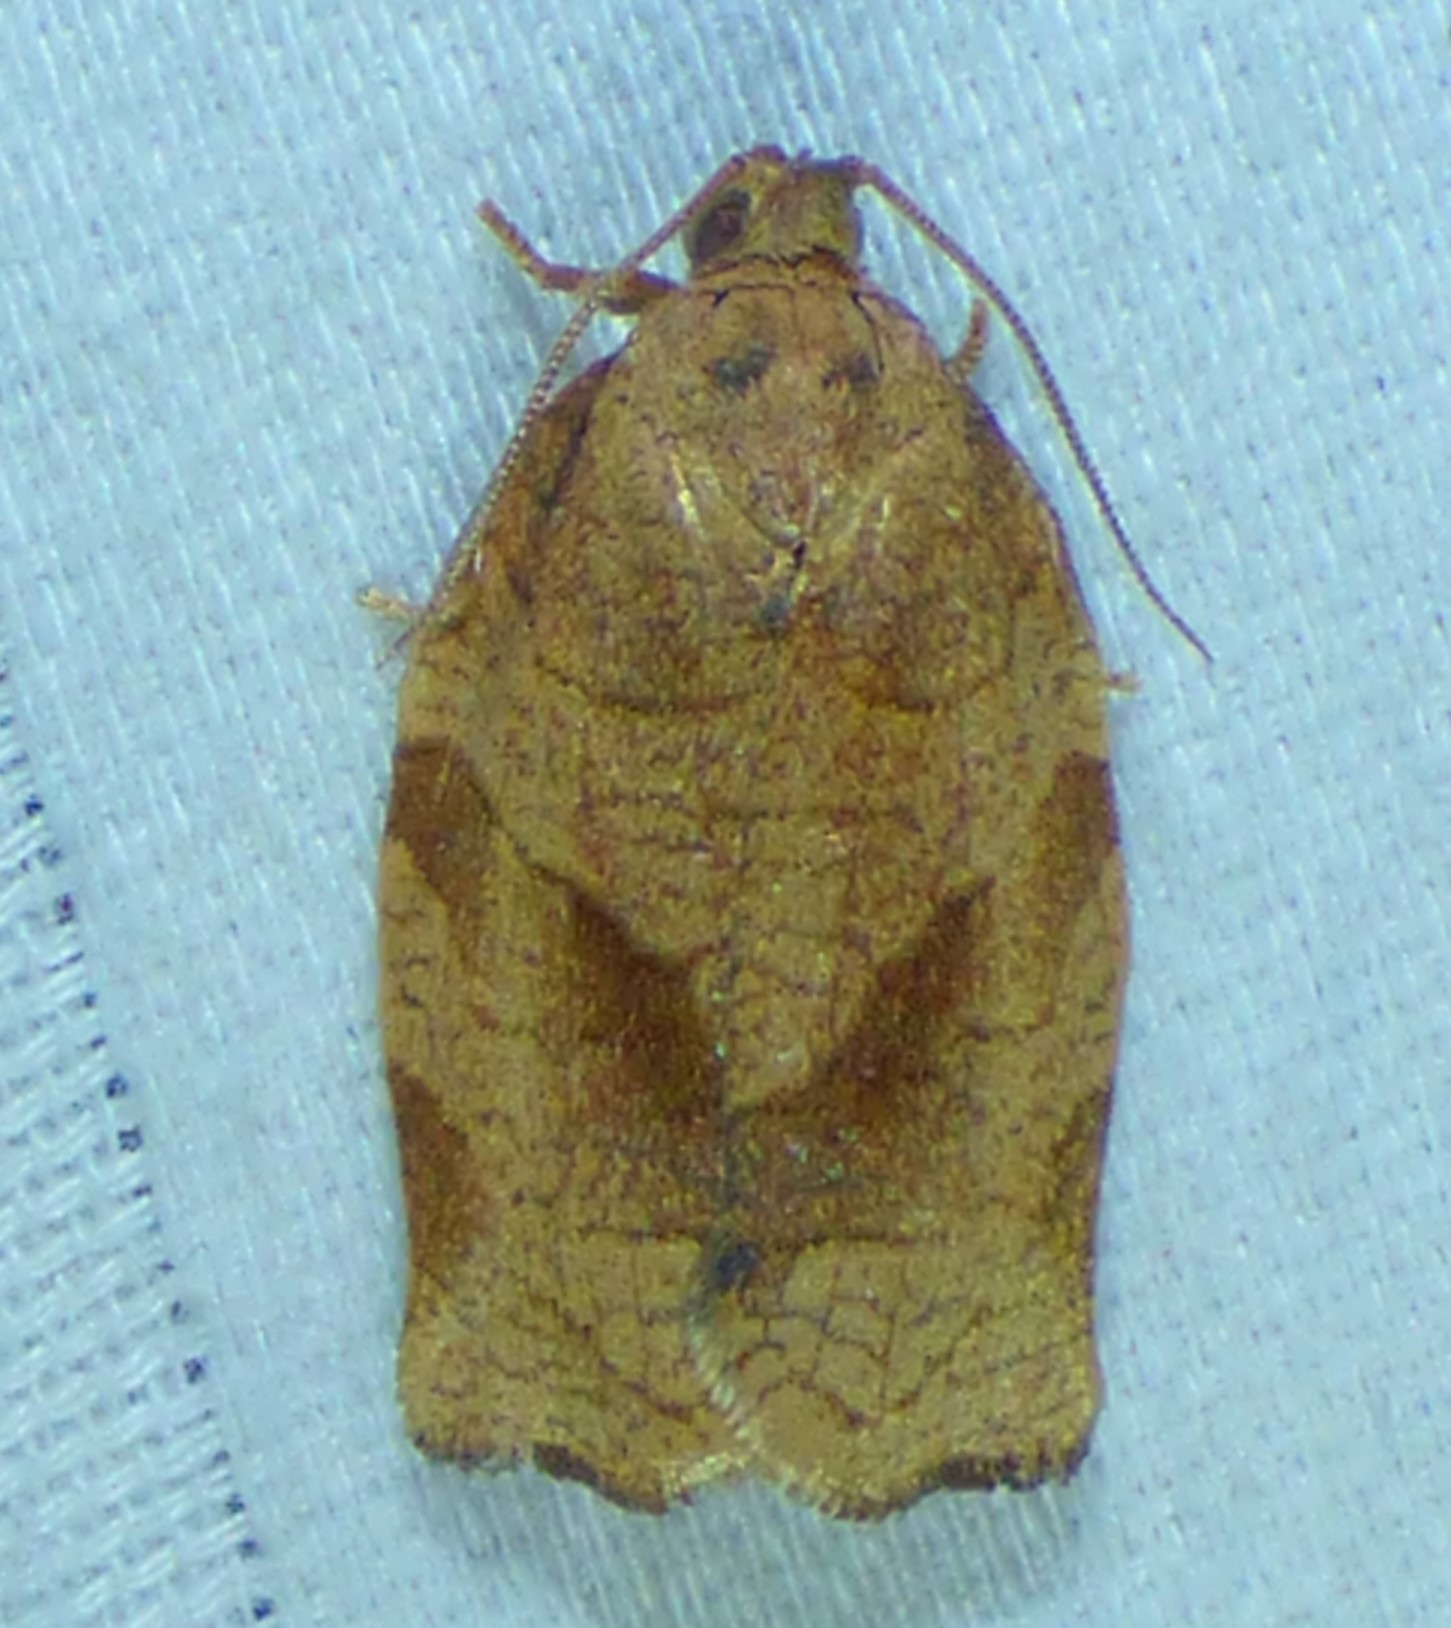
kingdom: Animalia
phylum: Arthropoda
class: Insecta
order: Lepidoptera
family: Tortricidae
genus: Choristoneura
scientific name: Choristoneura rosaceana
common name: Oblique-banded leafroller moth
